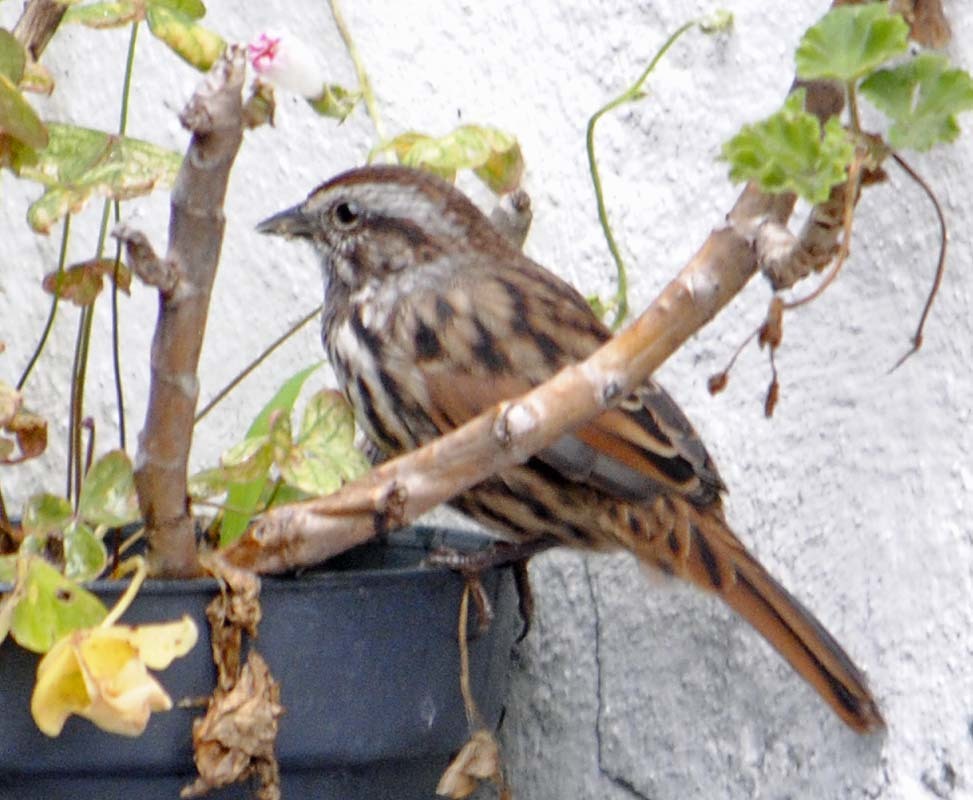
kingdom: Animalia
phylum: Chordata
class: Aves
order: Passeriformes
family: Passerellidae
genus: Melospiza
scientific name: Melospiza melodia
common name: Song sparrow
